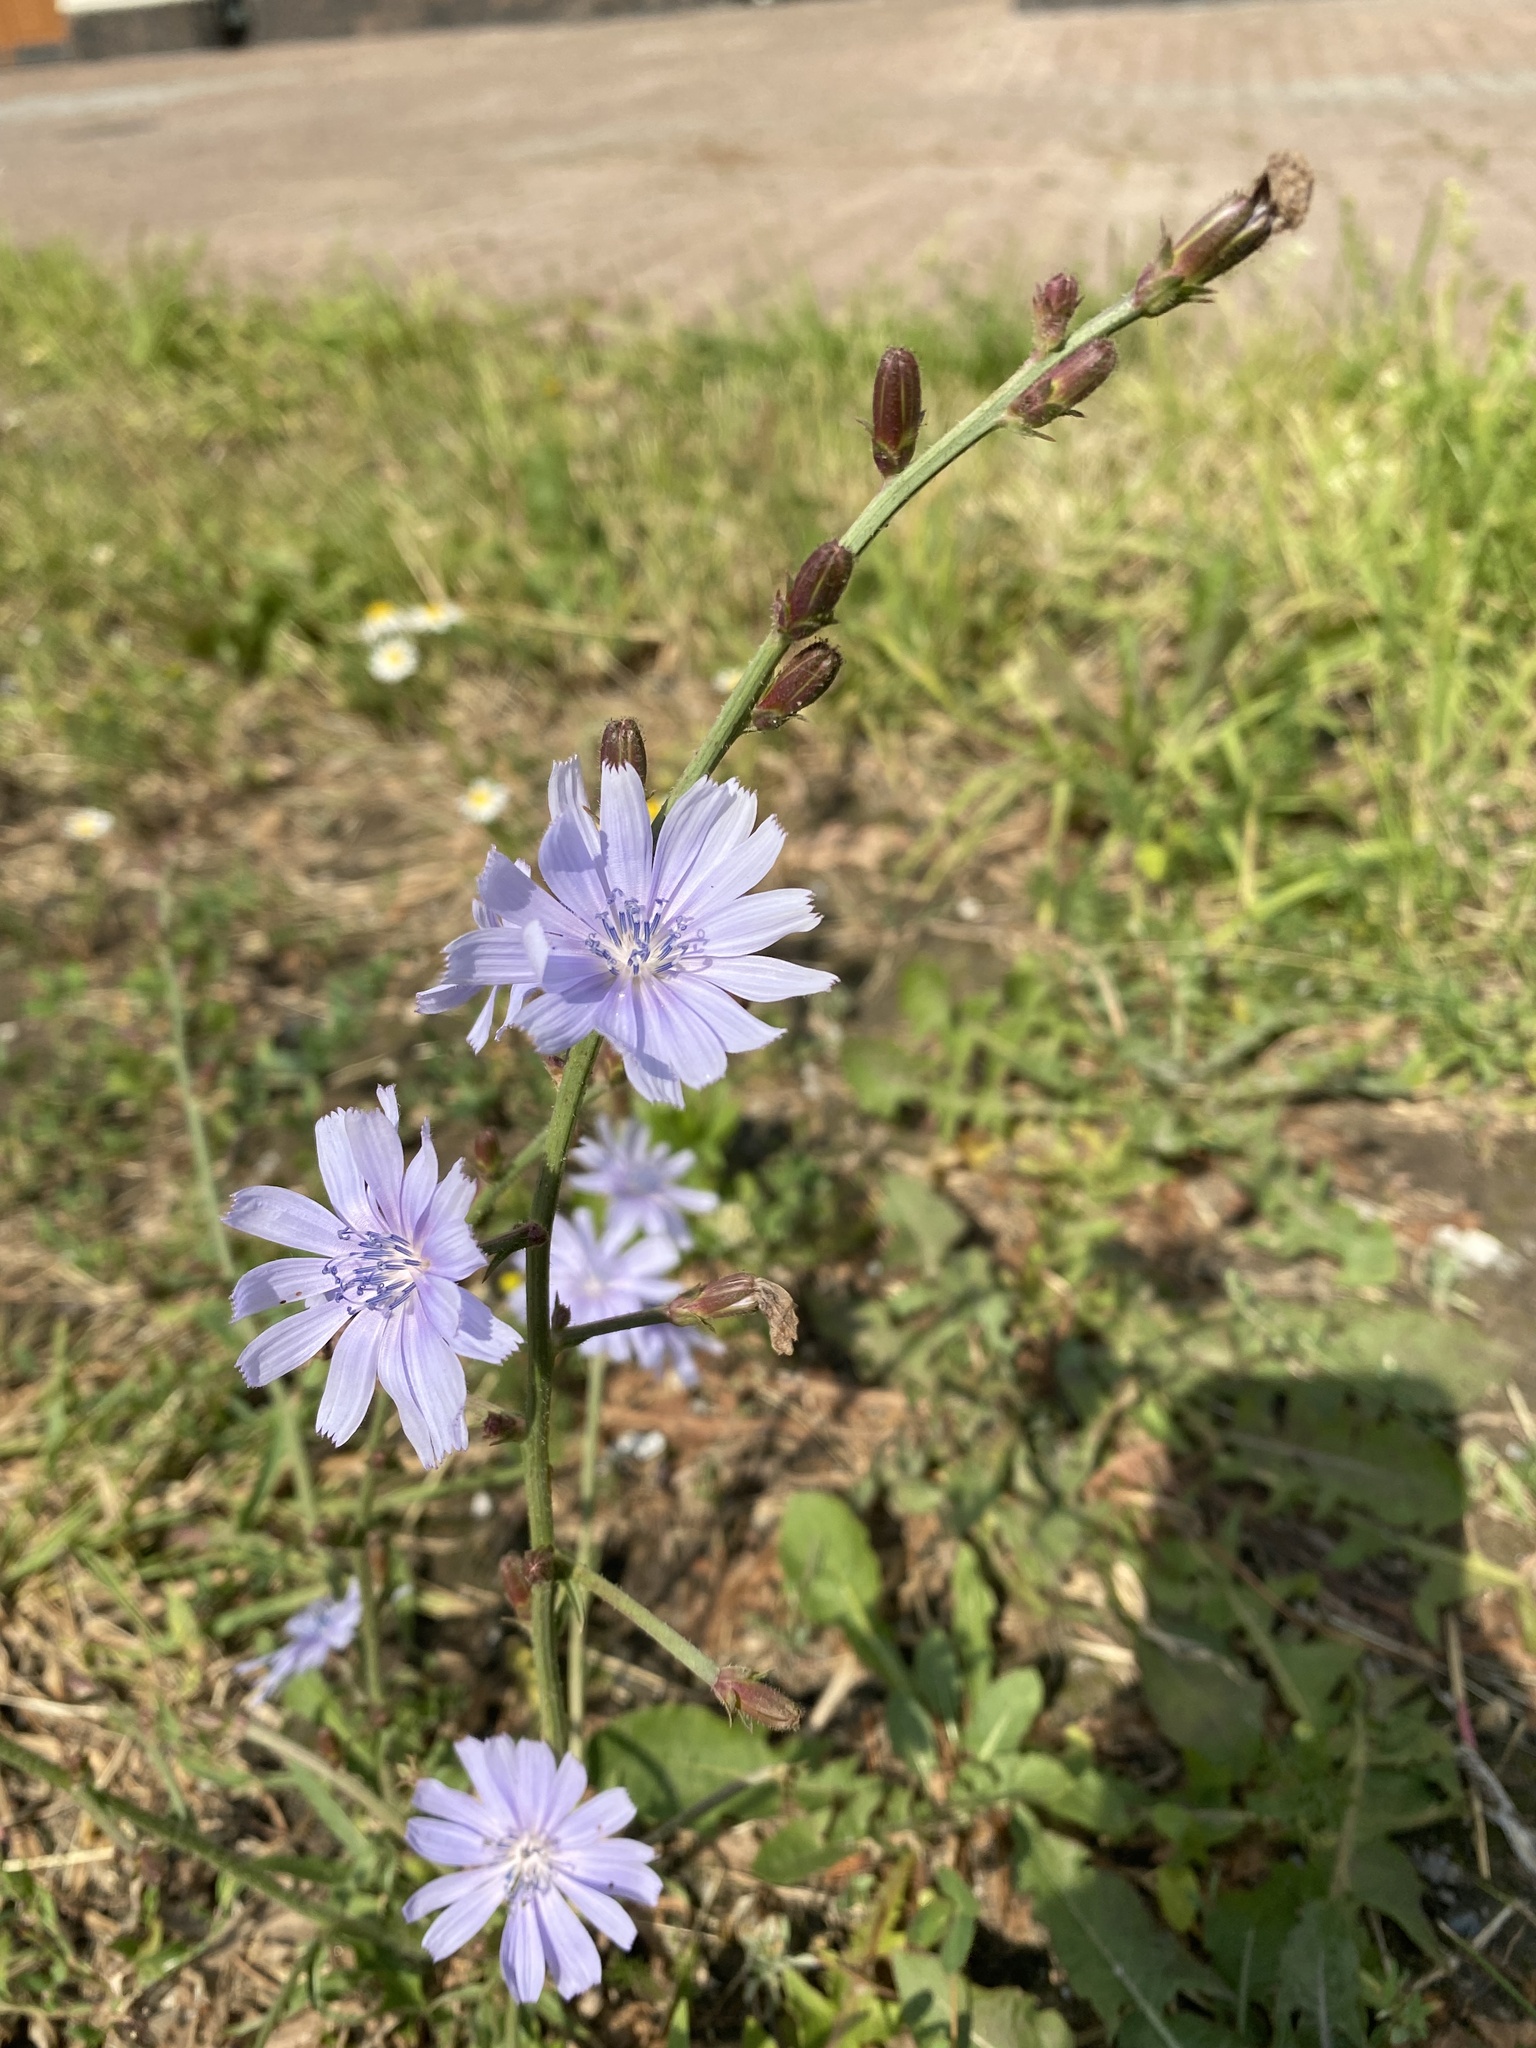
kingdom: Plantae
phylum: Tracheophyta
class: Magnoliopsida
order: Asterales
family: Asteraceae
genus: Cichorium
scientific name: Cichorium intybus
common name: Chicory
